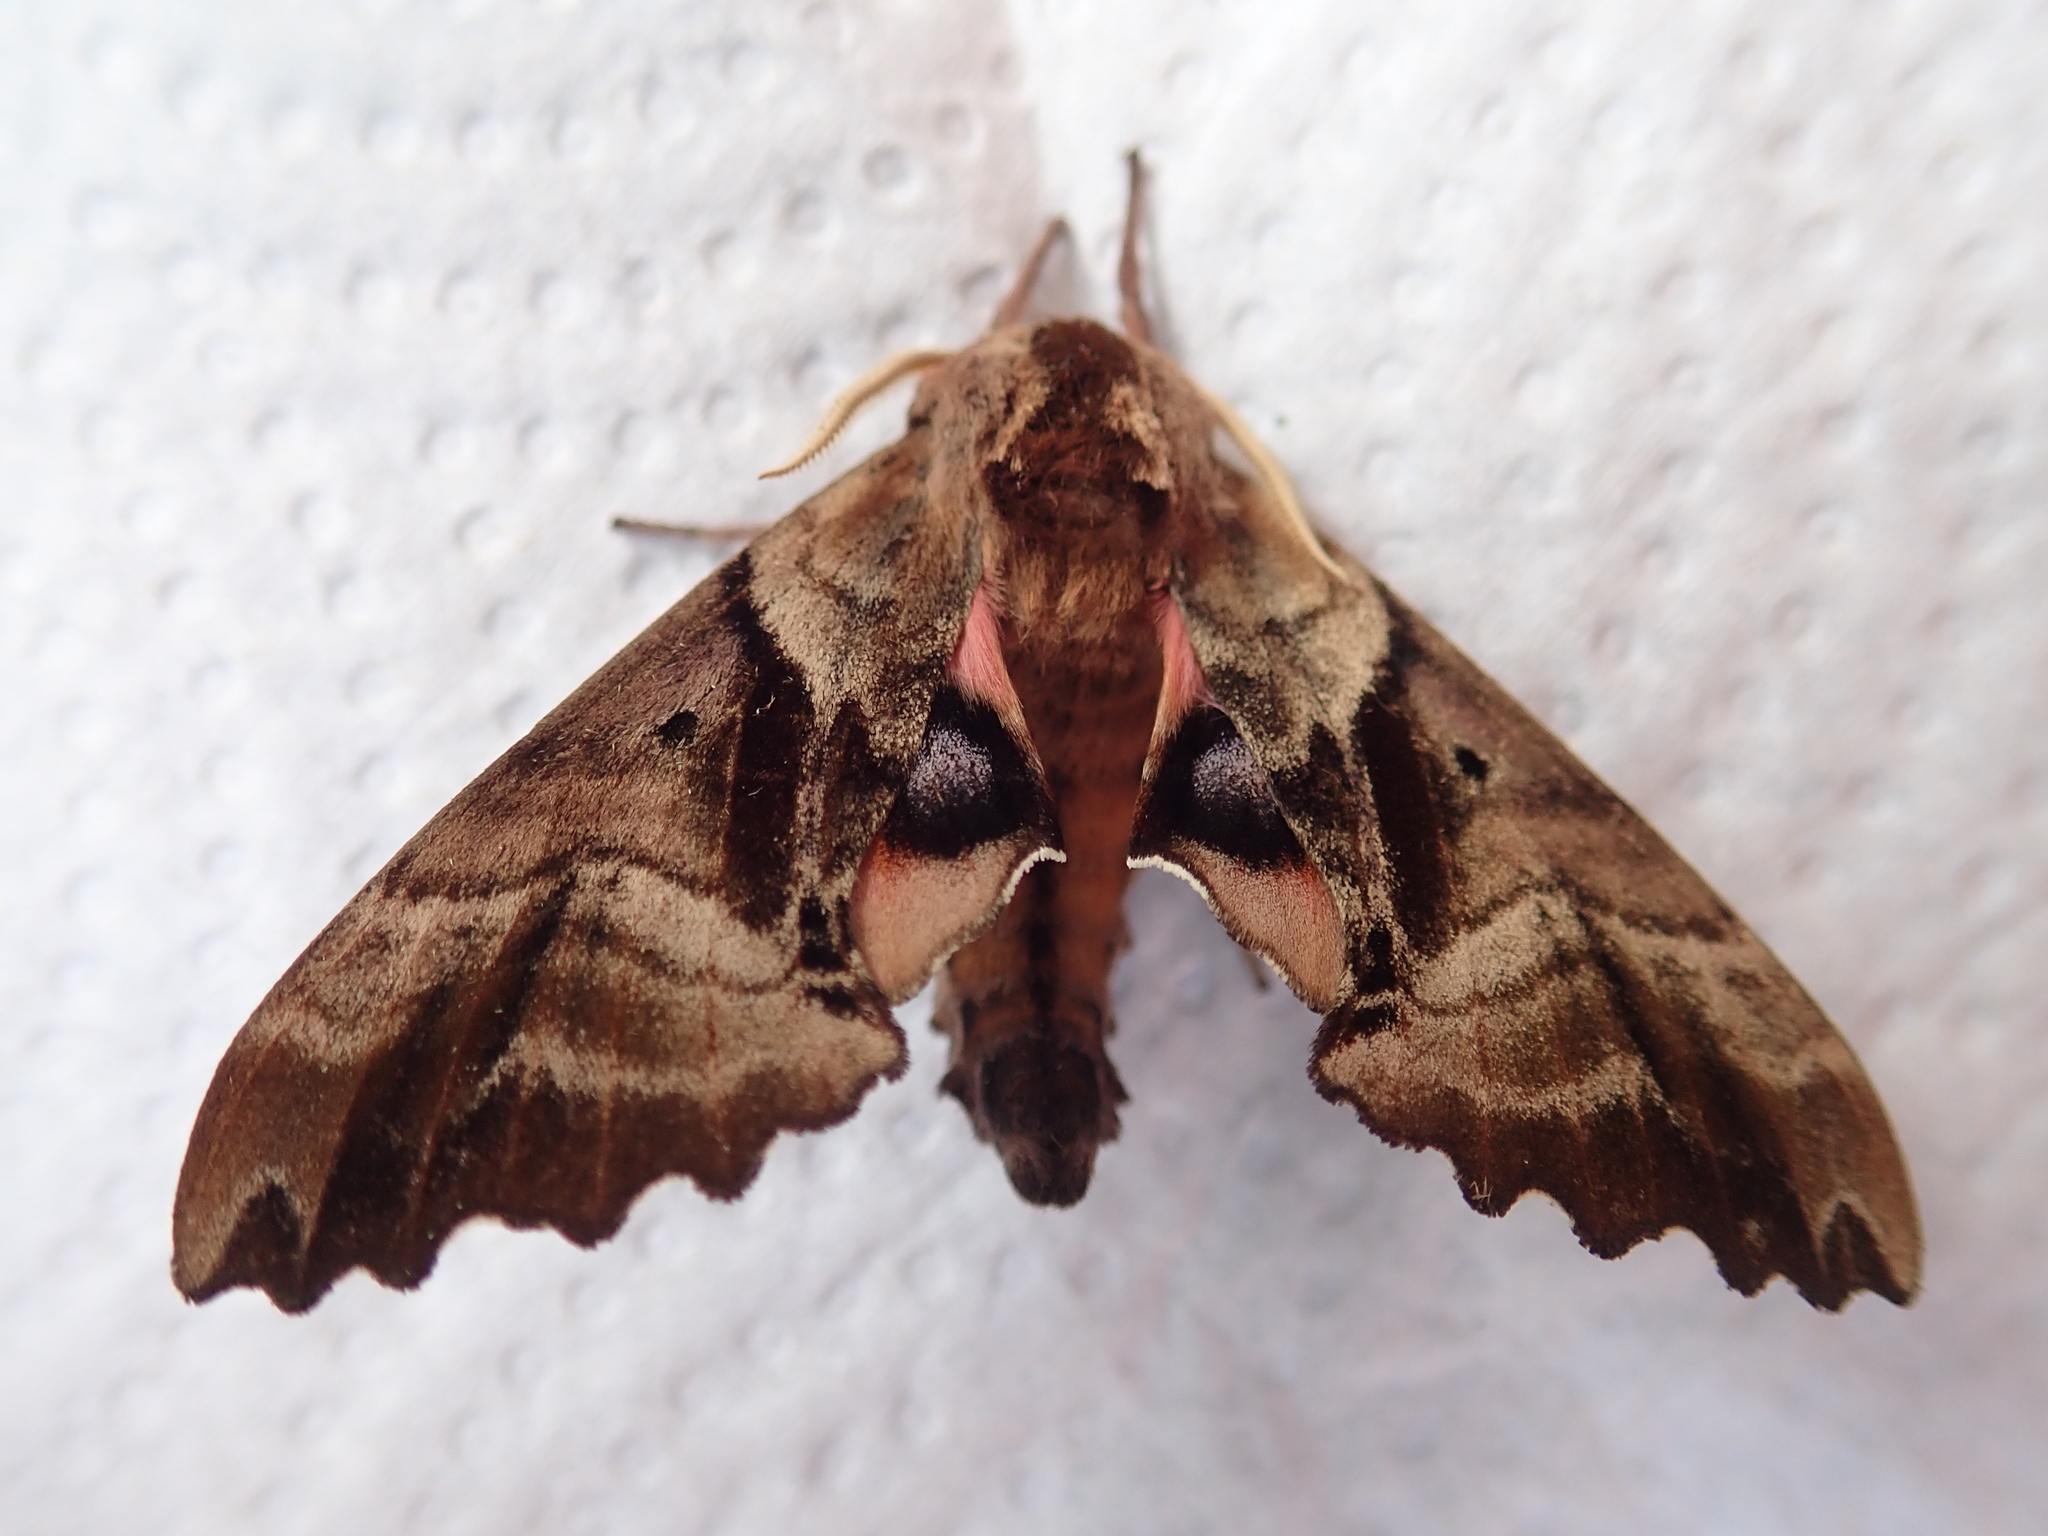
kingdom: Animalia
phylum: Arthropoda
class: Insecta
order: Lepidoptera
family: Sphingidae
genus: Paonias
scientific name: Paonias excaecata
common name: Blind-eyed sphinx
